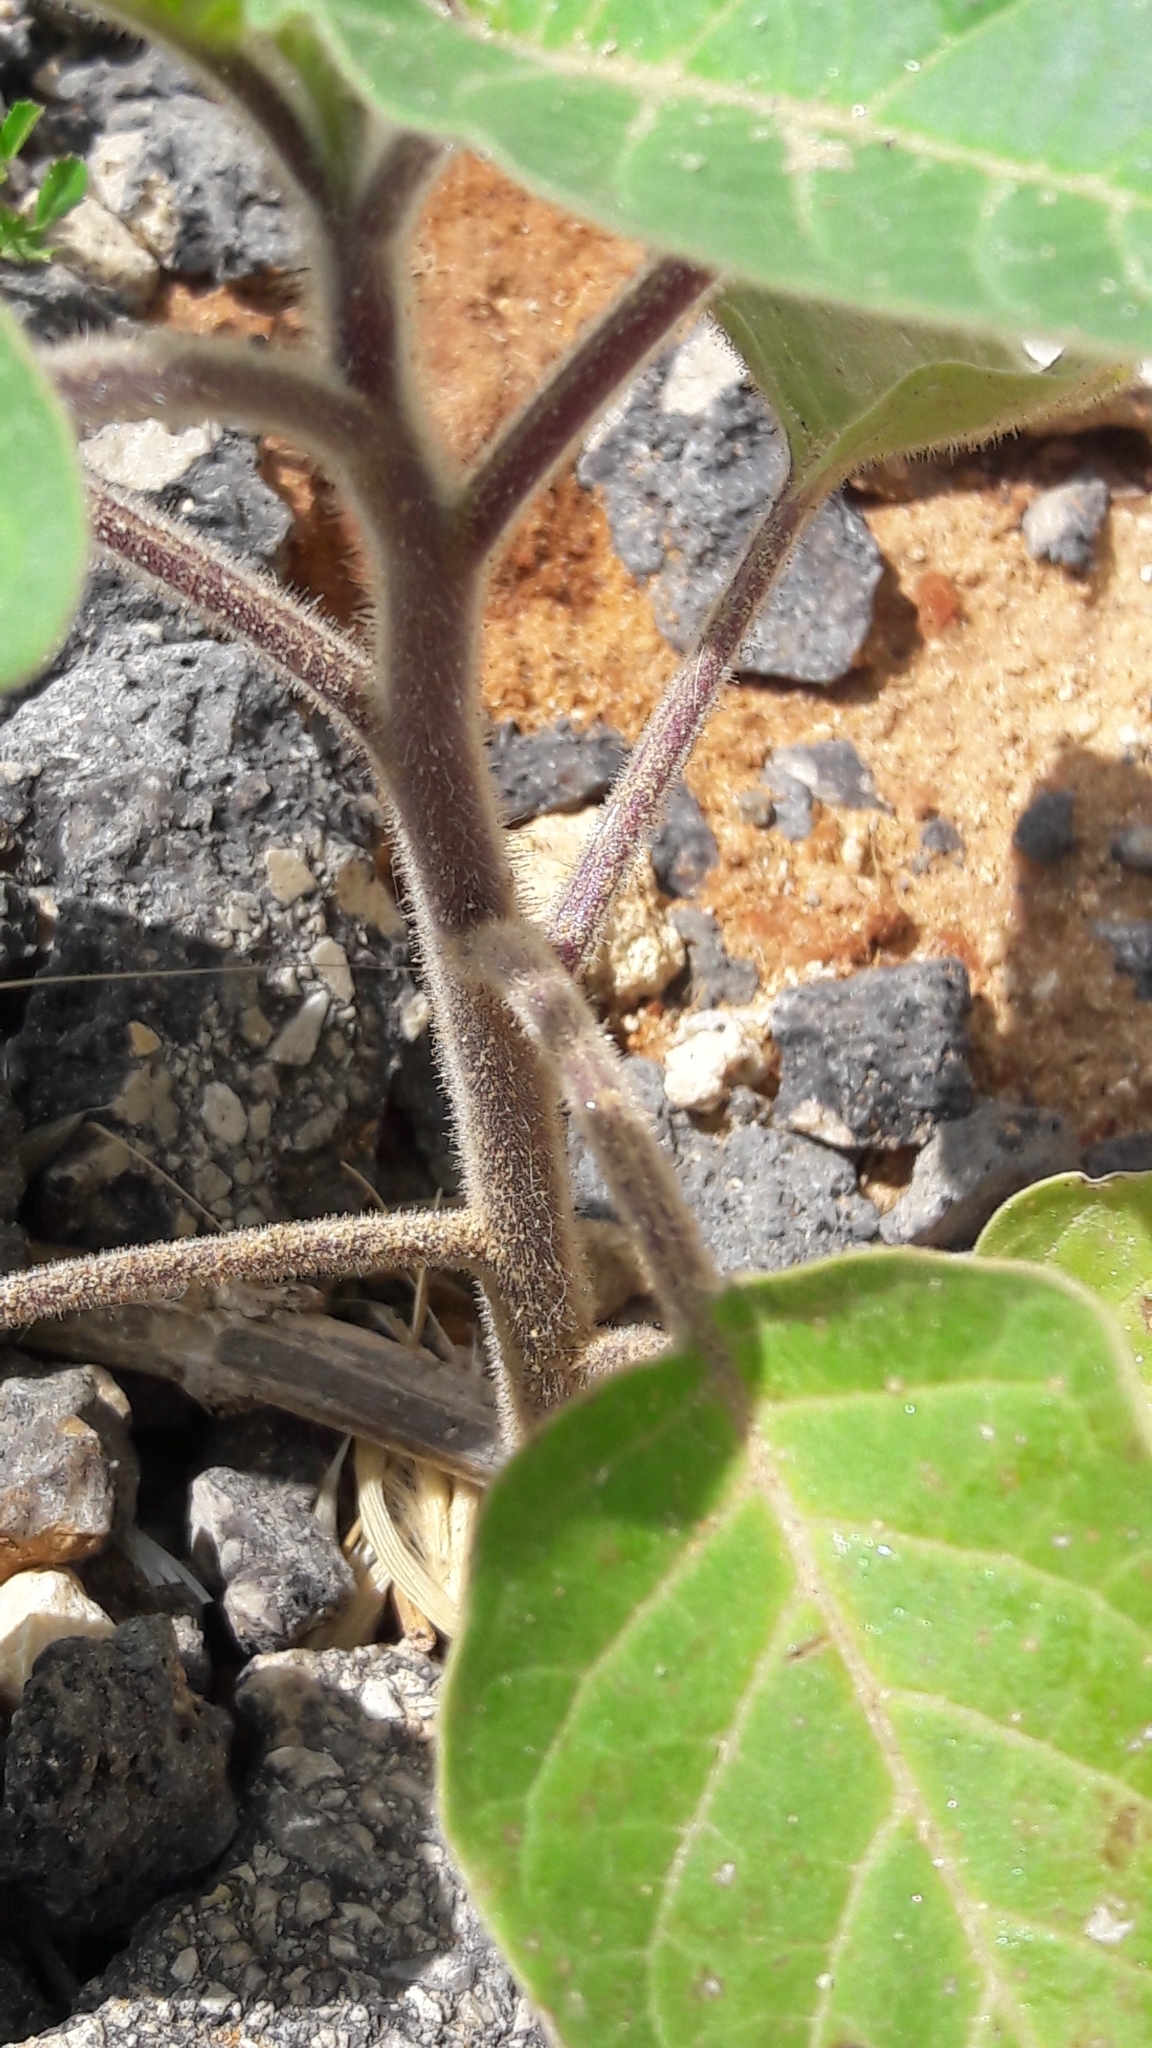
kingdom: Plantae
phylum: Tracheophyta
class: Magnoliopsida
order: Solanales
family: Solanaceae
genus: Datura
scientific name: Datura innoxia
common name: Downy thorn-apple
